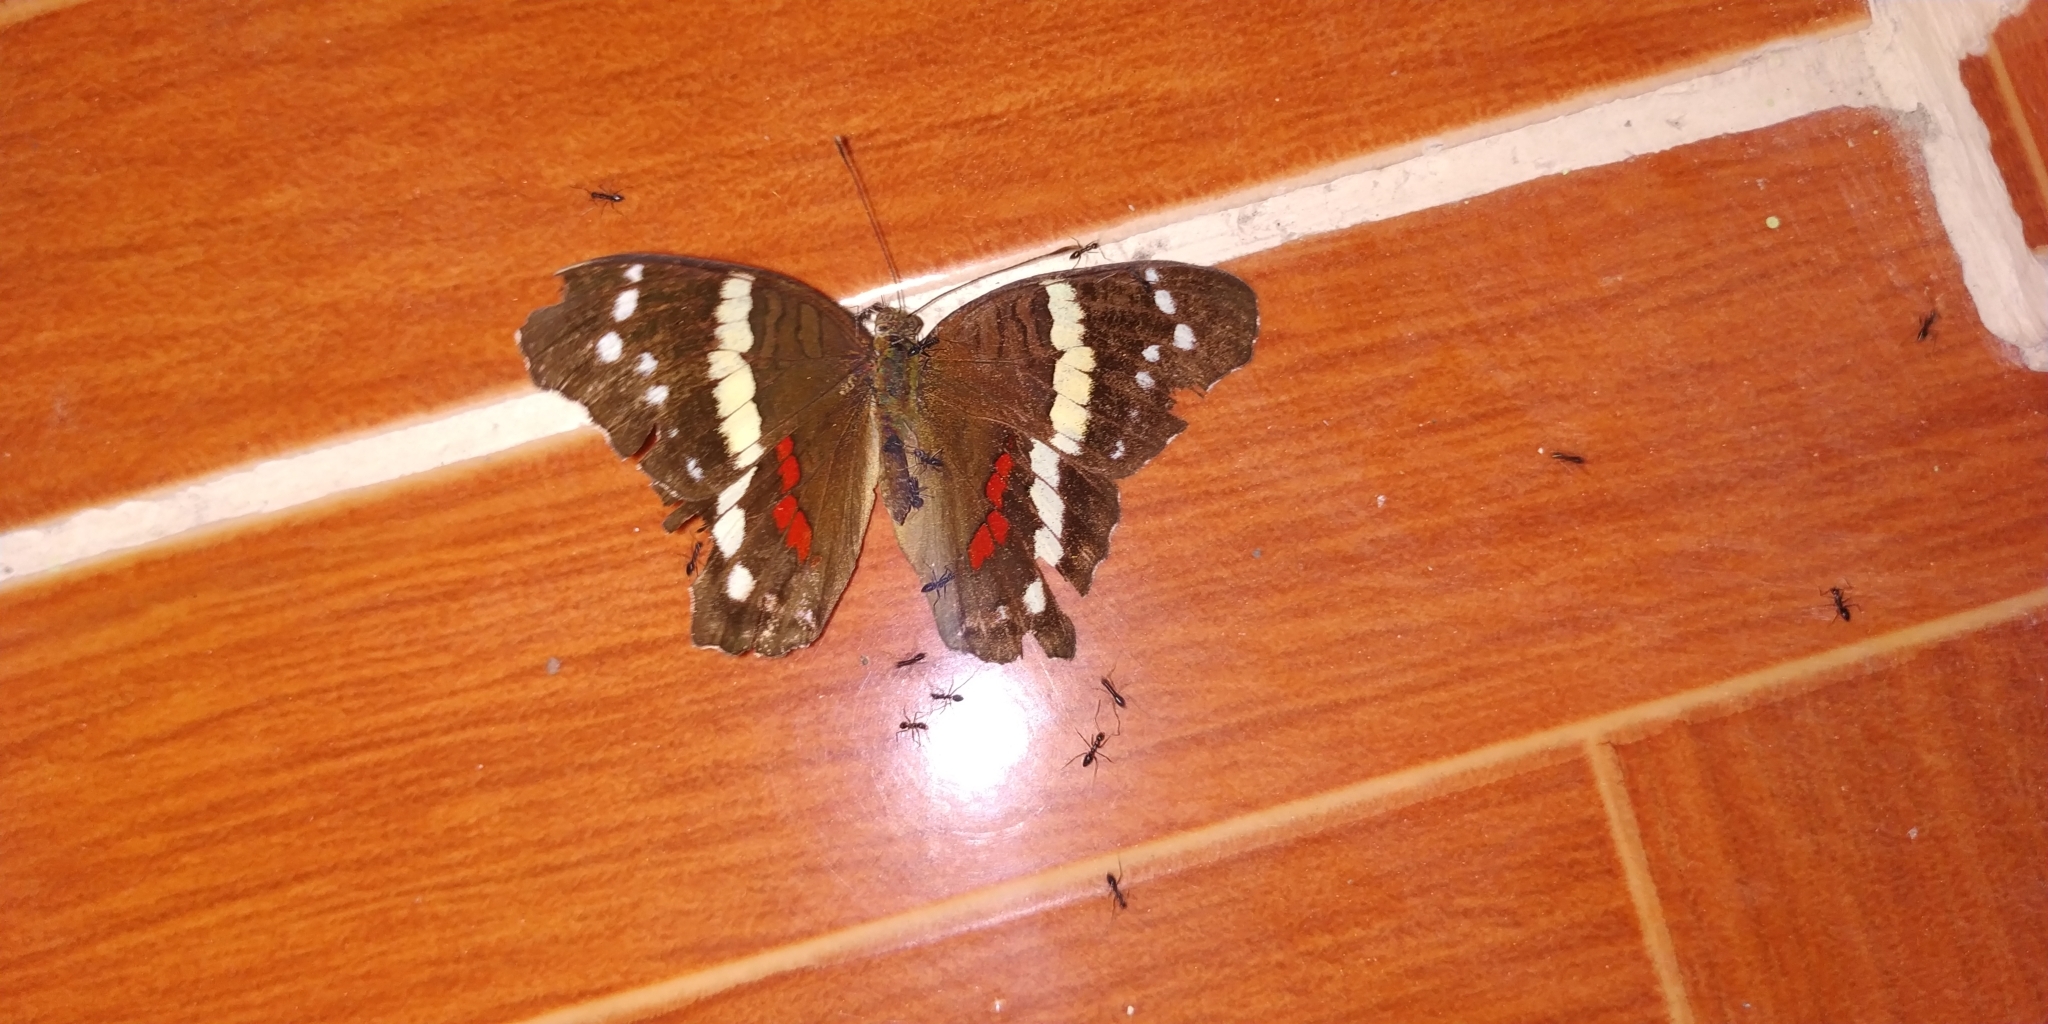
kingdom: Animalia
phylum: Arthropoda
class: Insecta
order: Lepidoptera
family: Nymphalidae
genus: Anartia
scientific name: Anartia fatima
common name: Banded peacock
